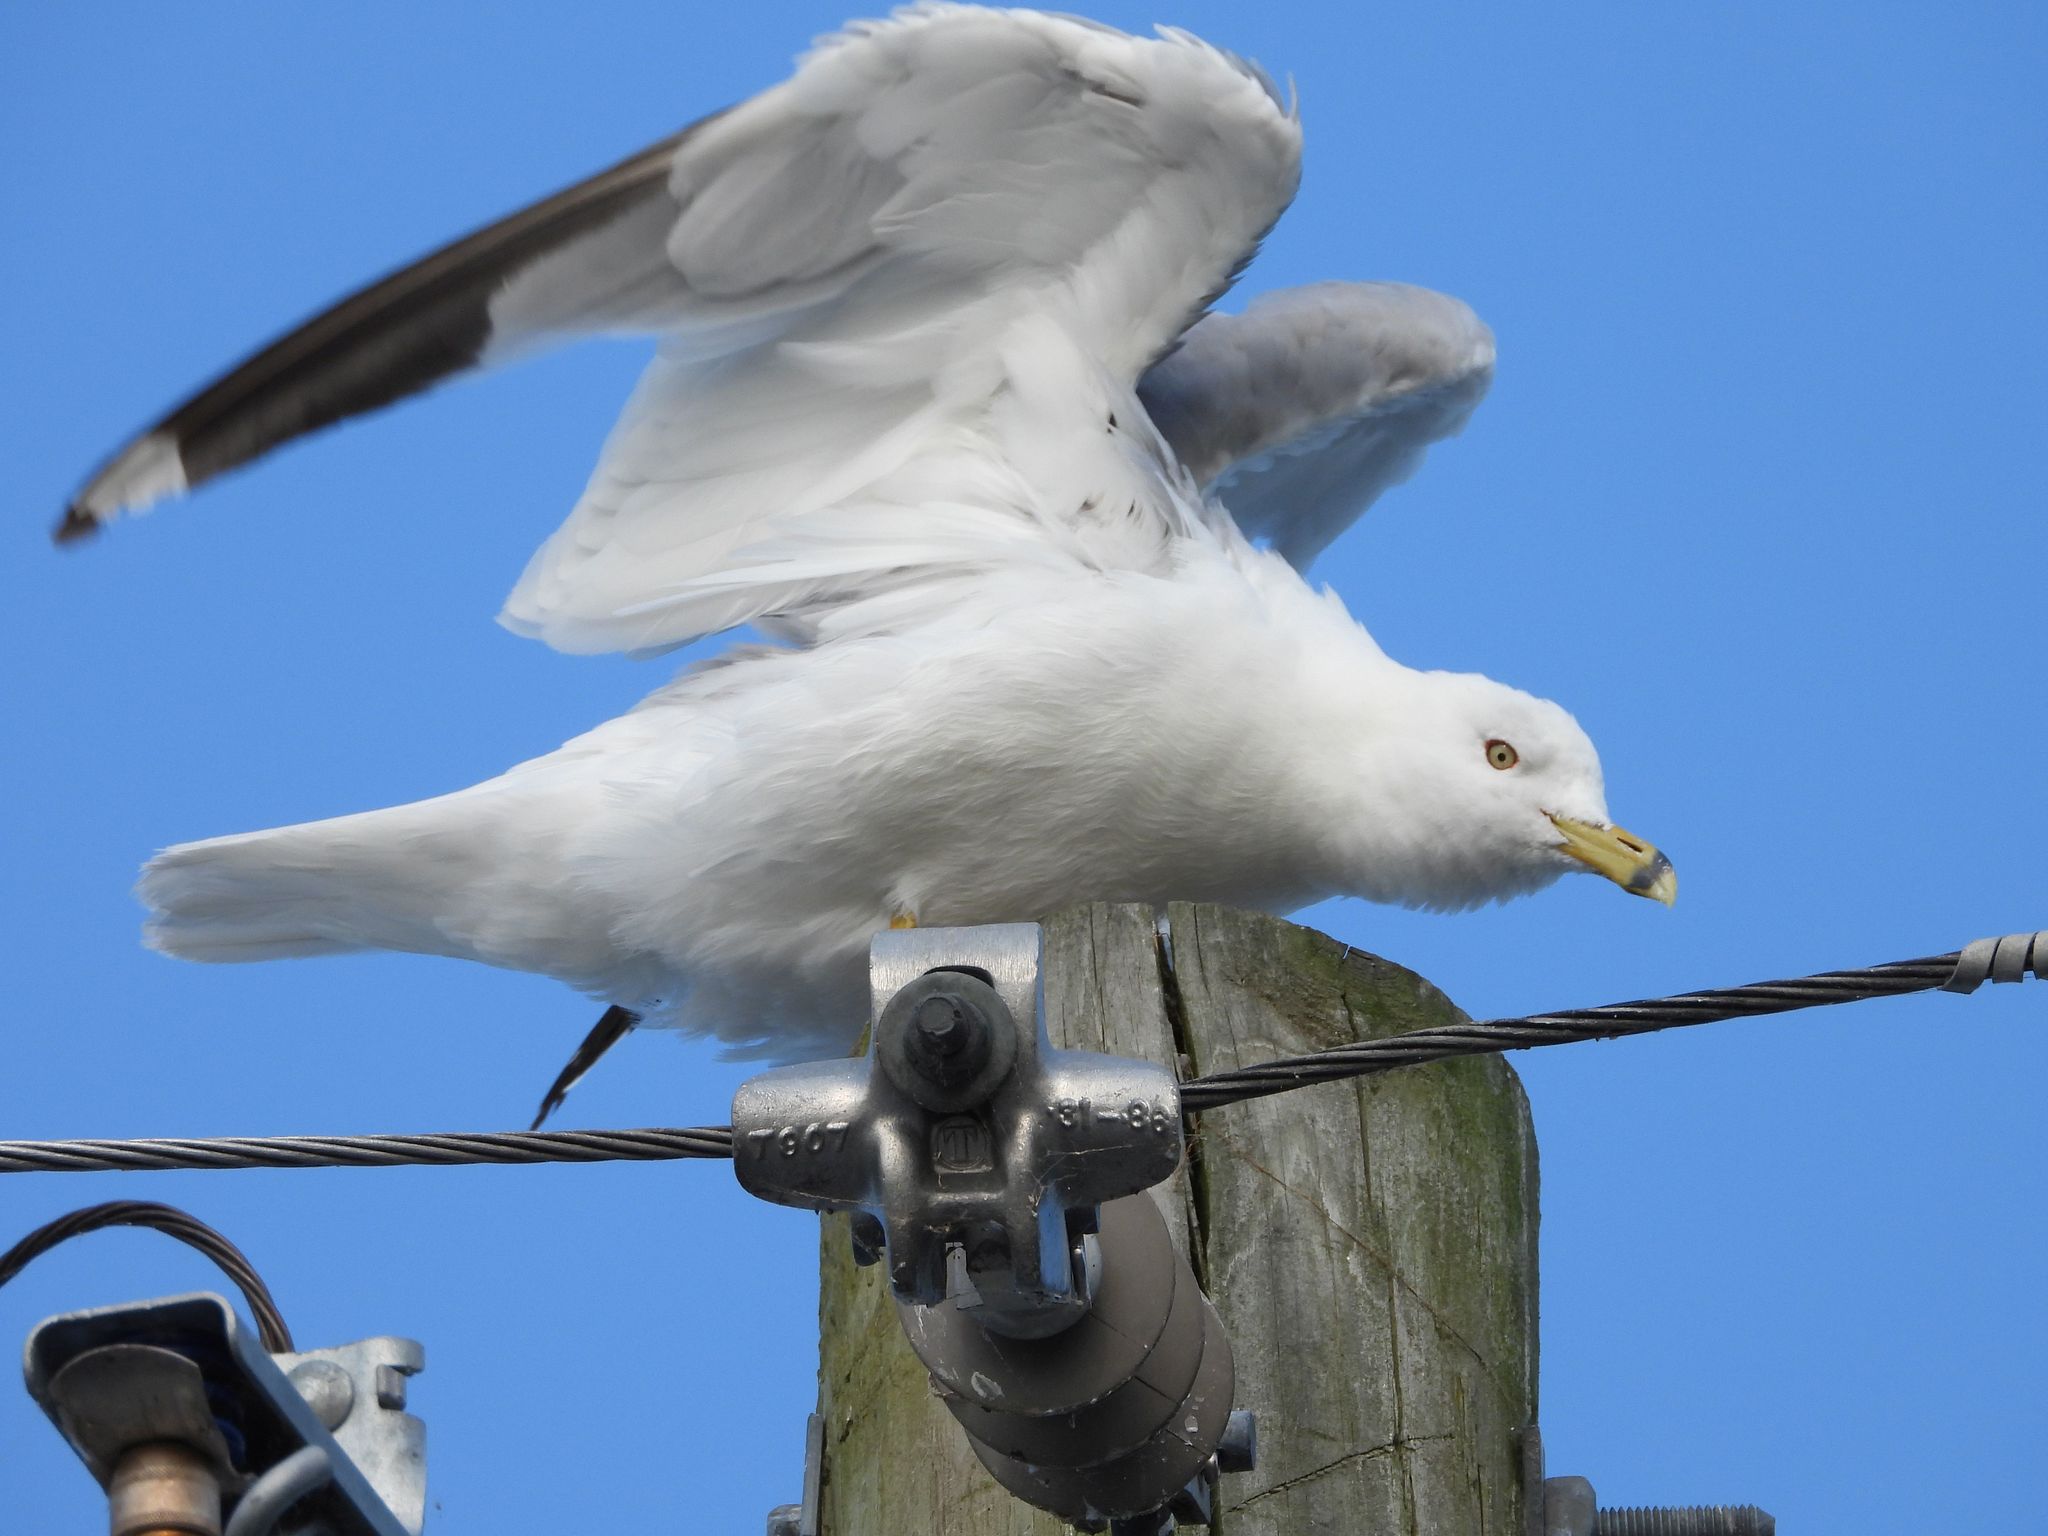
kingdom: Animalia
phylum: Chordata
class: Aves
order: Charadriiformes
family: Laridae
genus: Larus
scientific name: Larus delawarensis
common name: Ring-billed gull
